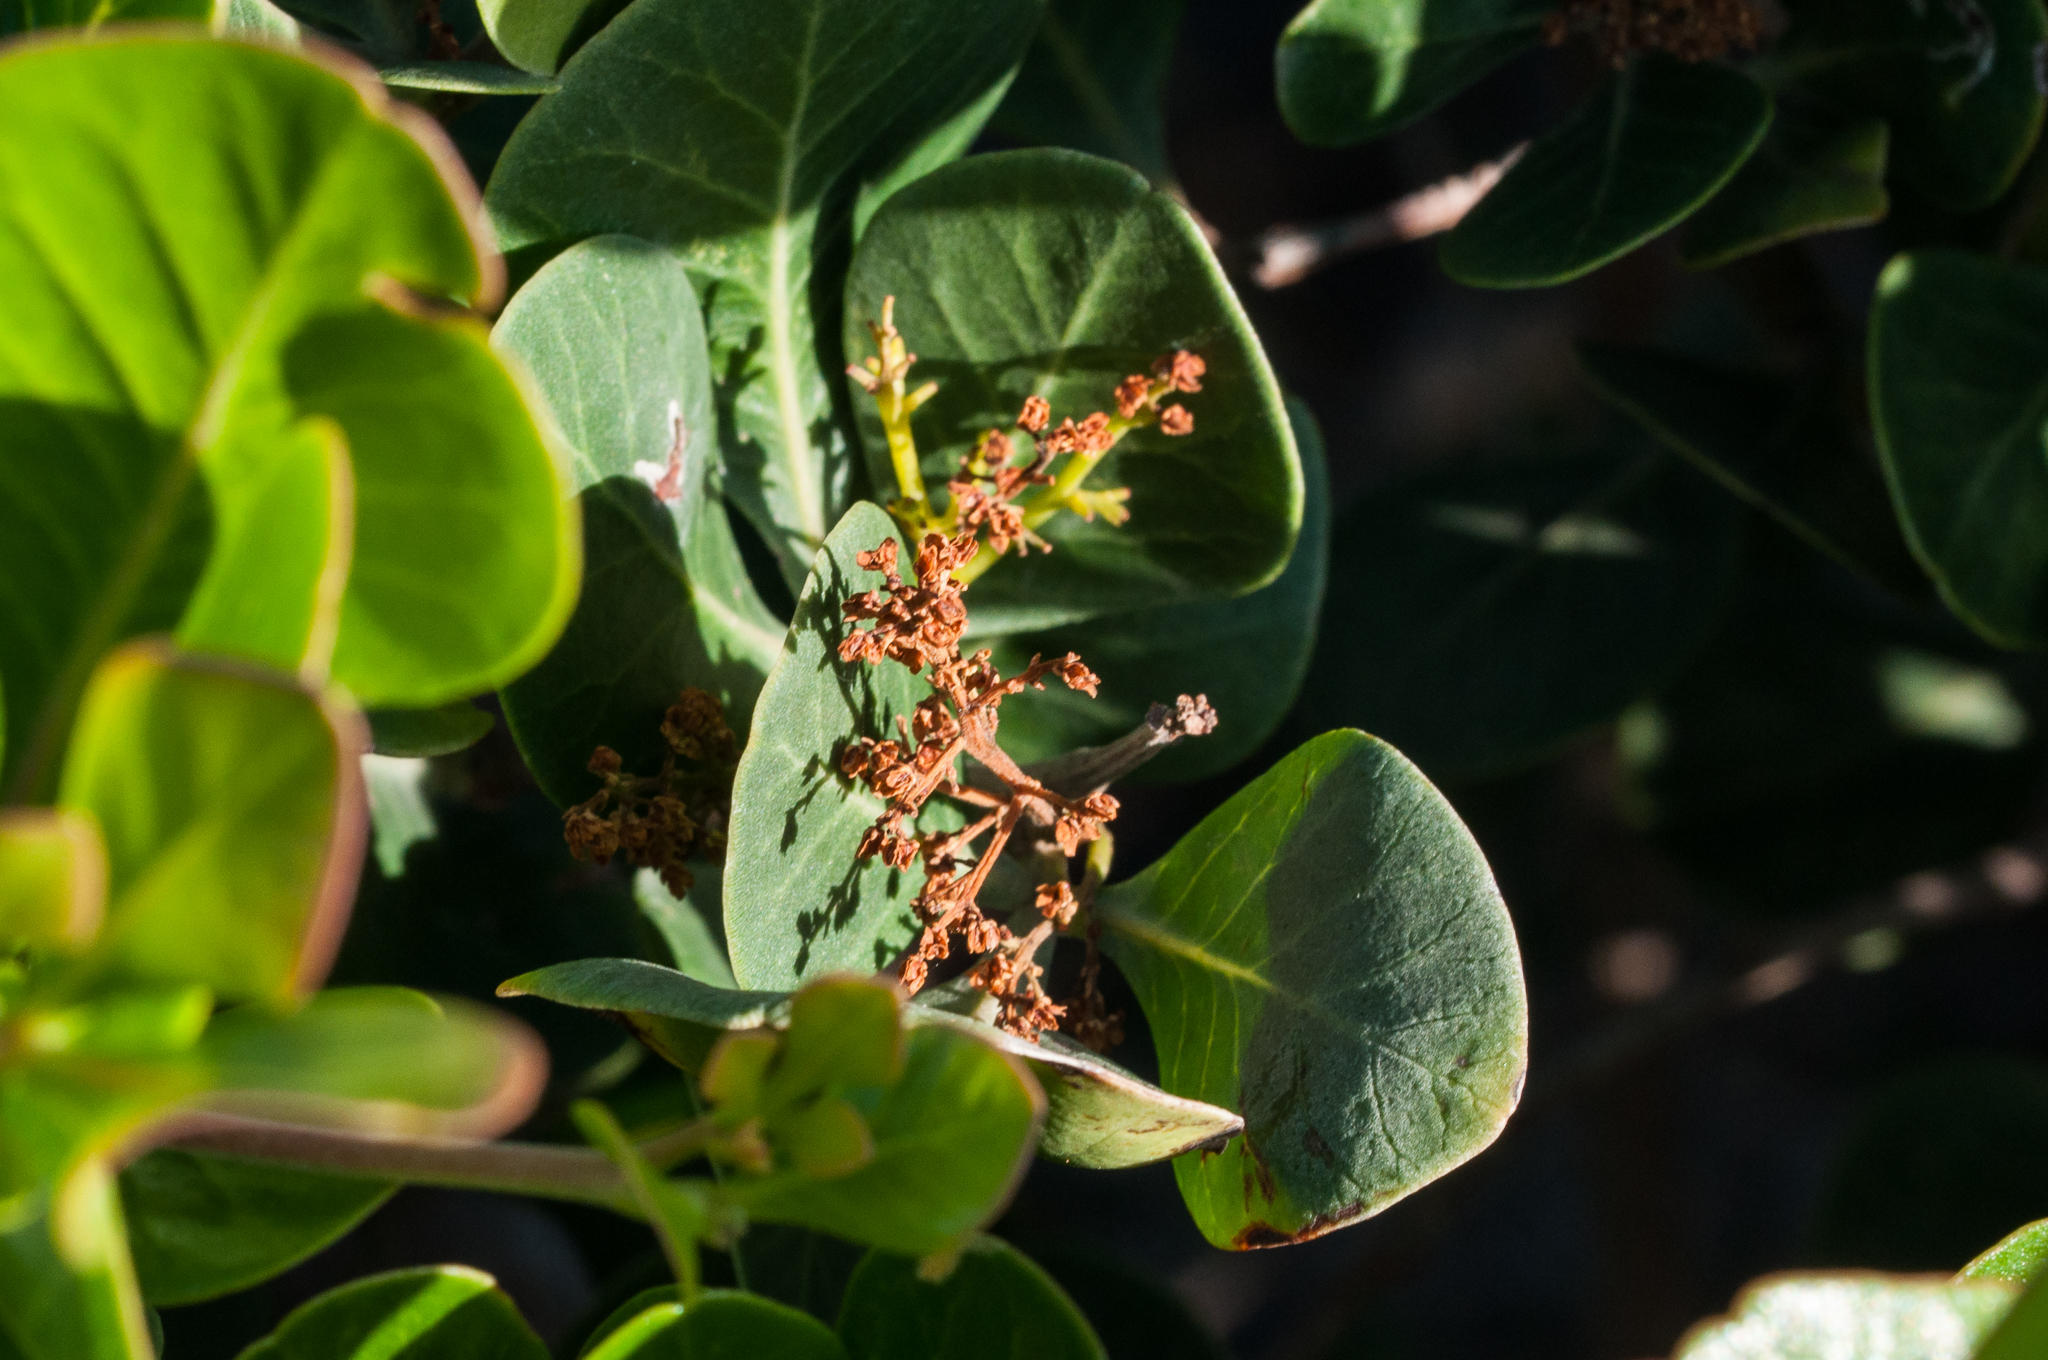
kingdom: Plantae
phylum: Tracheophyta
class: Magnoliopsida
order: Sapindales
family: Anacardiaceae
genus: Searsia
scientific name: Searsia lucida
